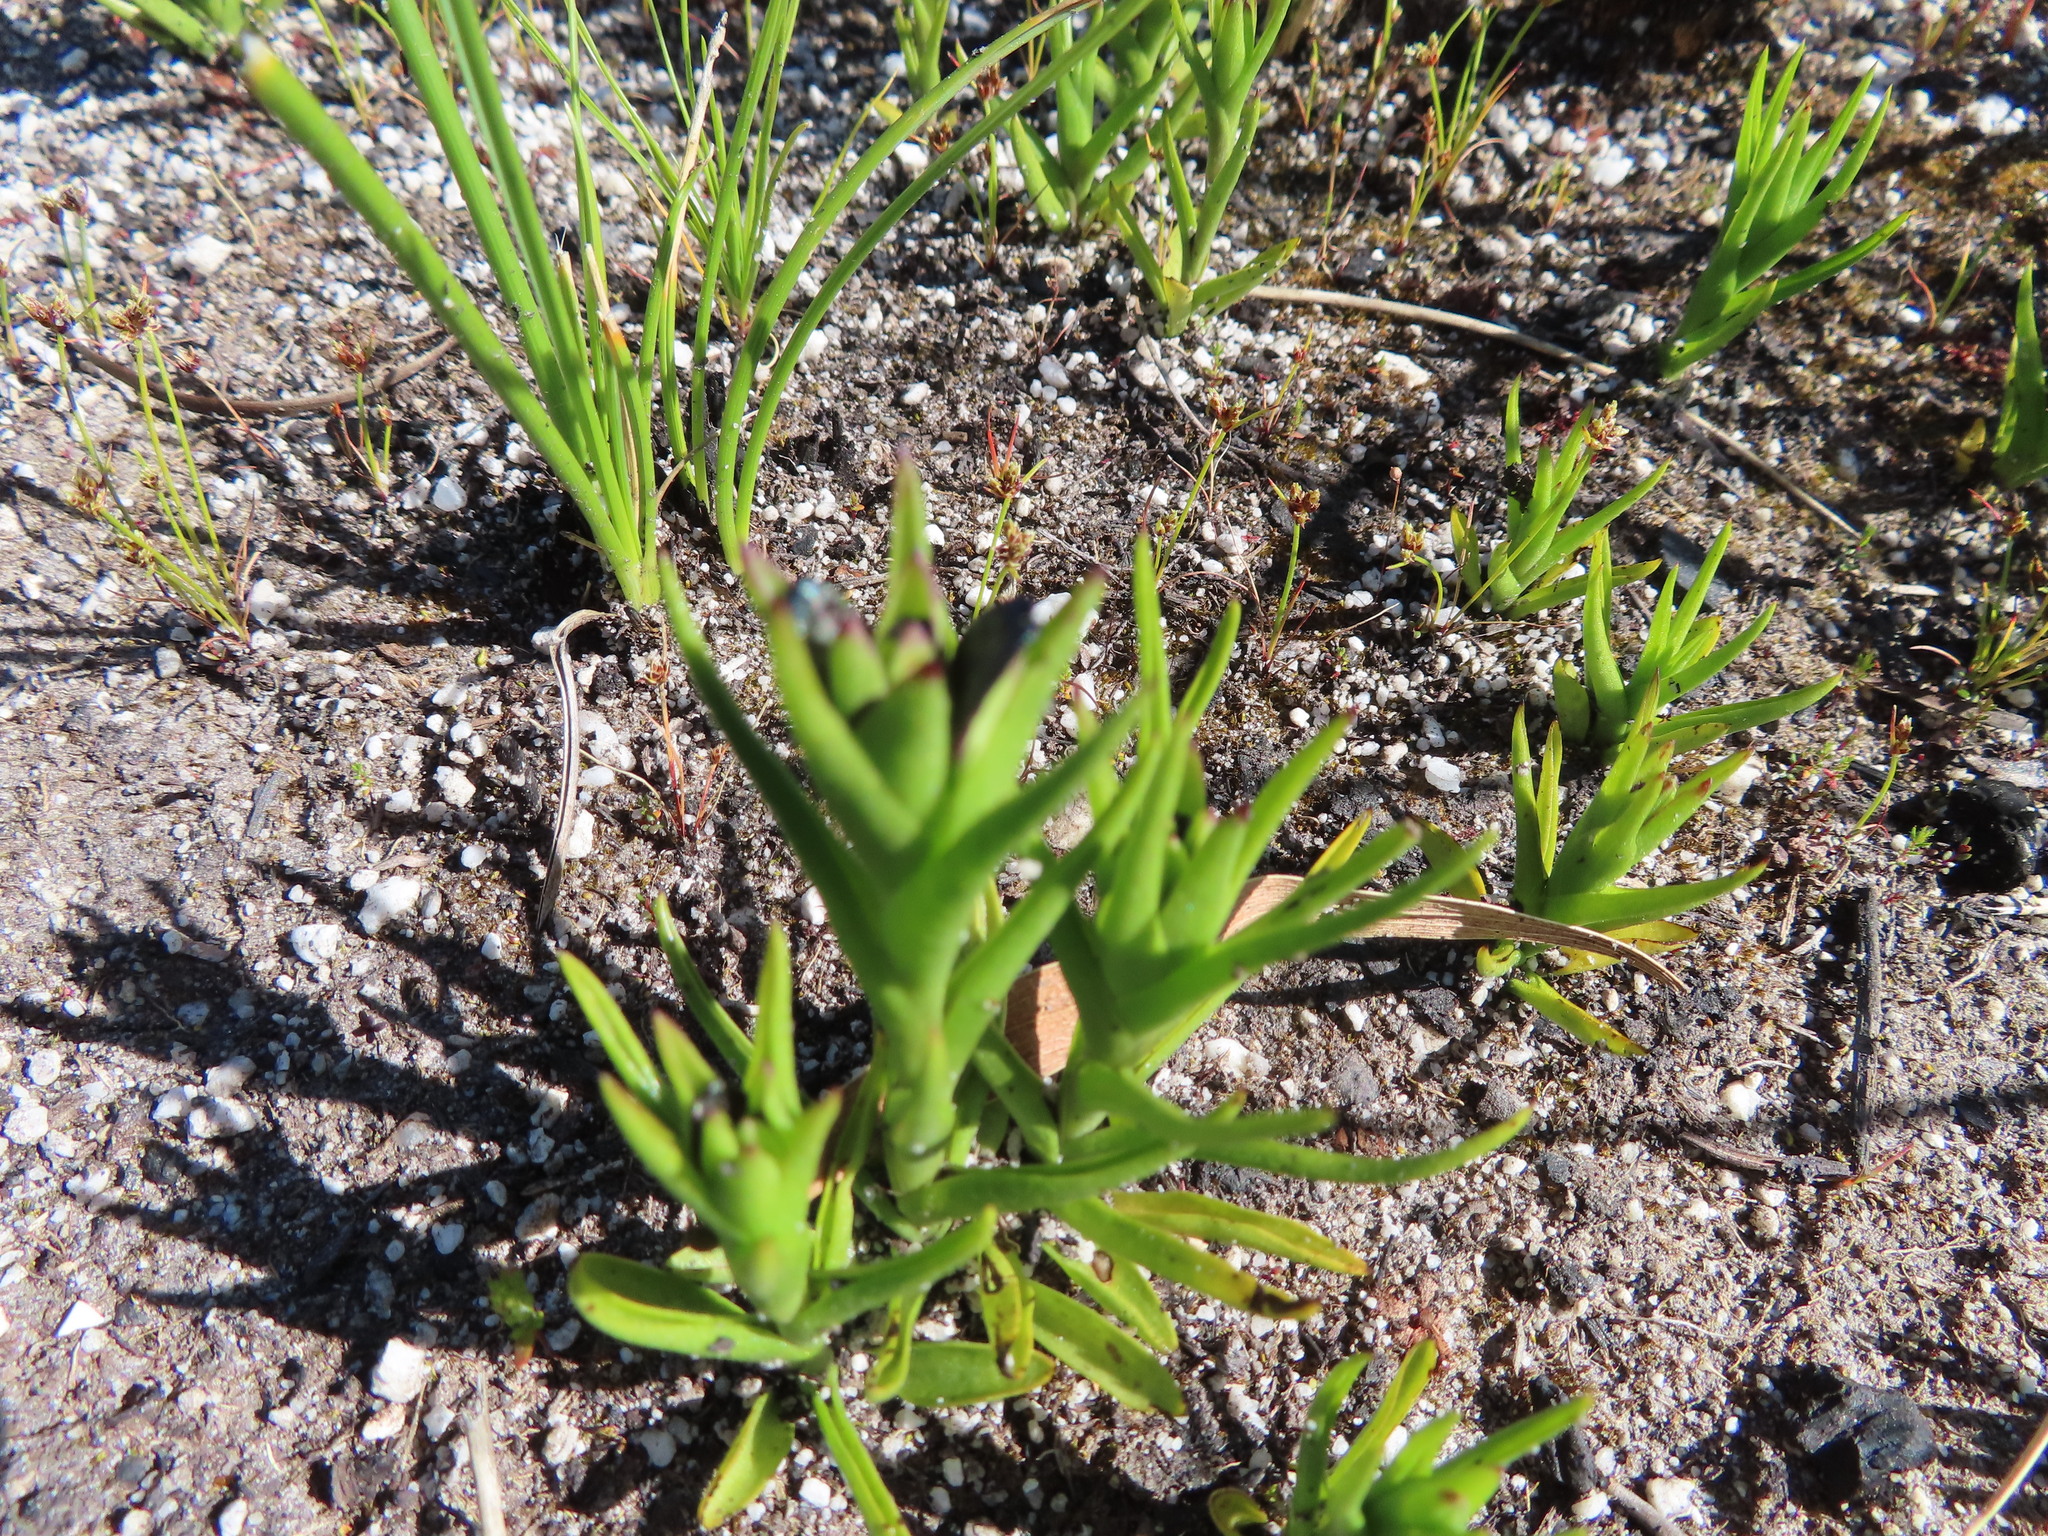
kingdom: Plantae
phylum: Tracheophyta
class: Liliopsida
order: Asparagales
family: Orchidaceae
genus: Disa
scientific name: Disa atricapilla
